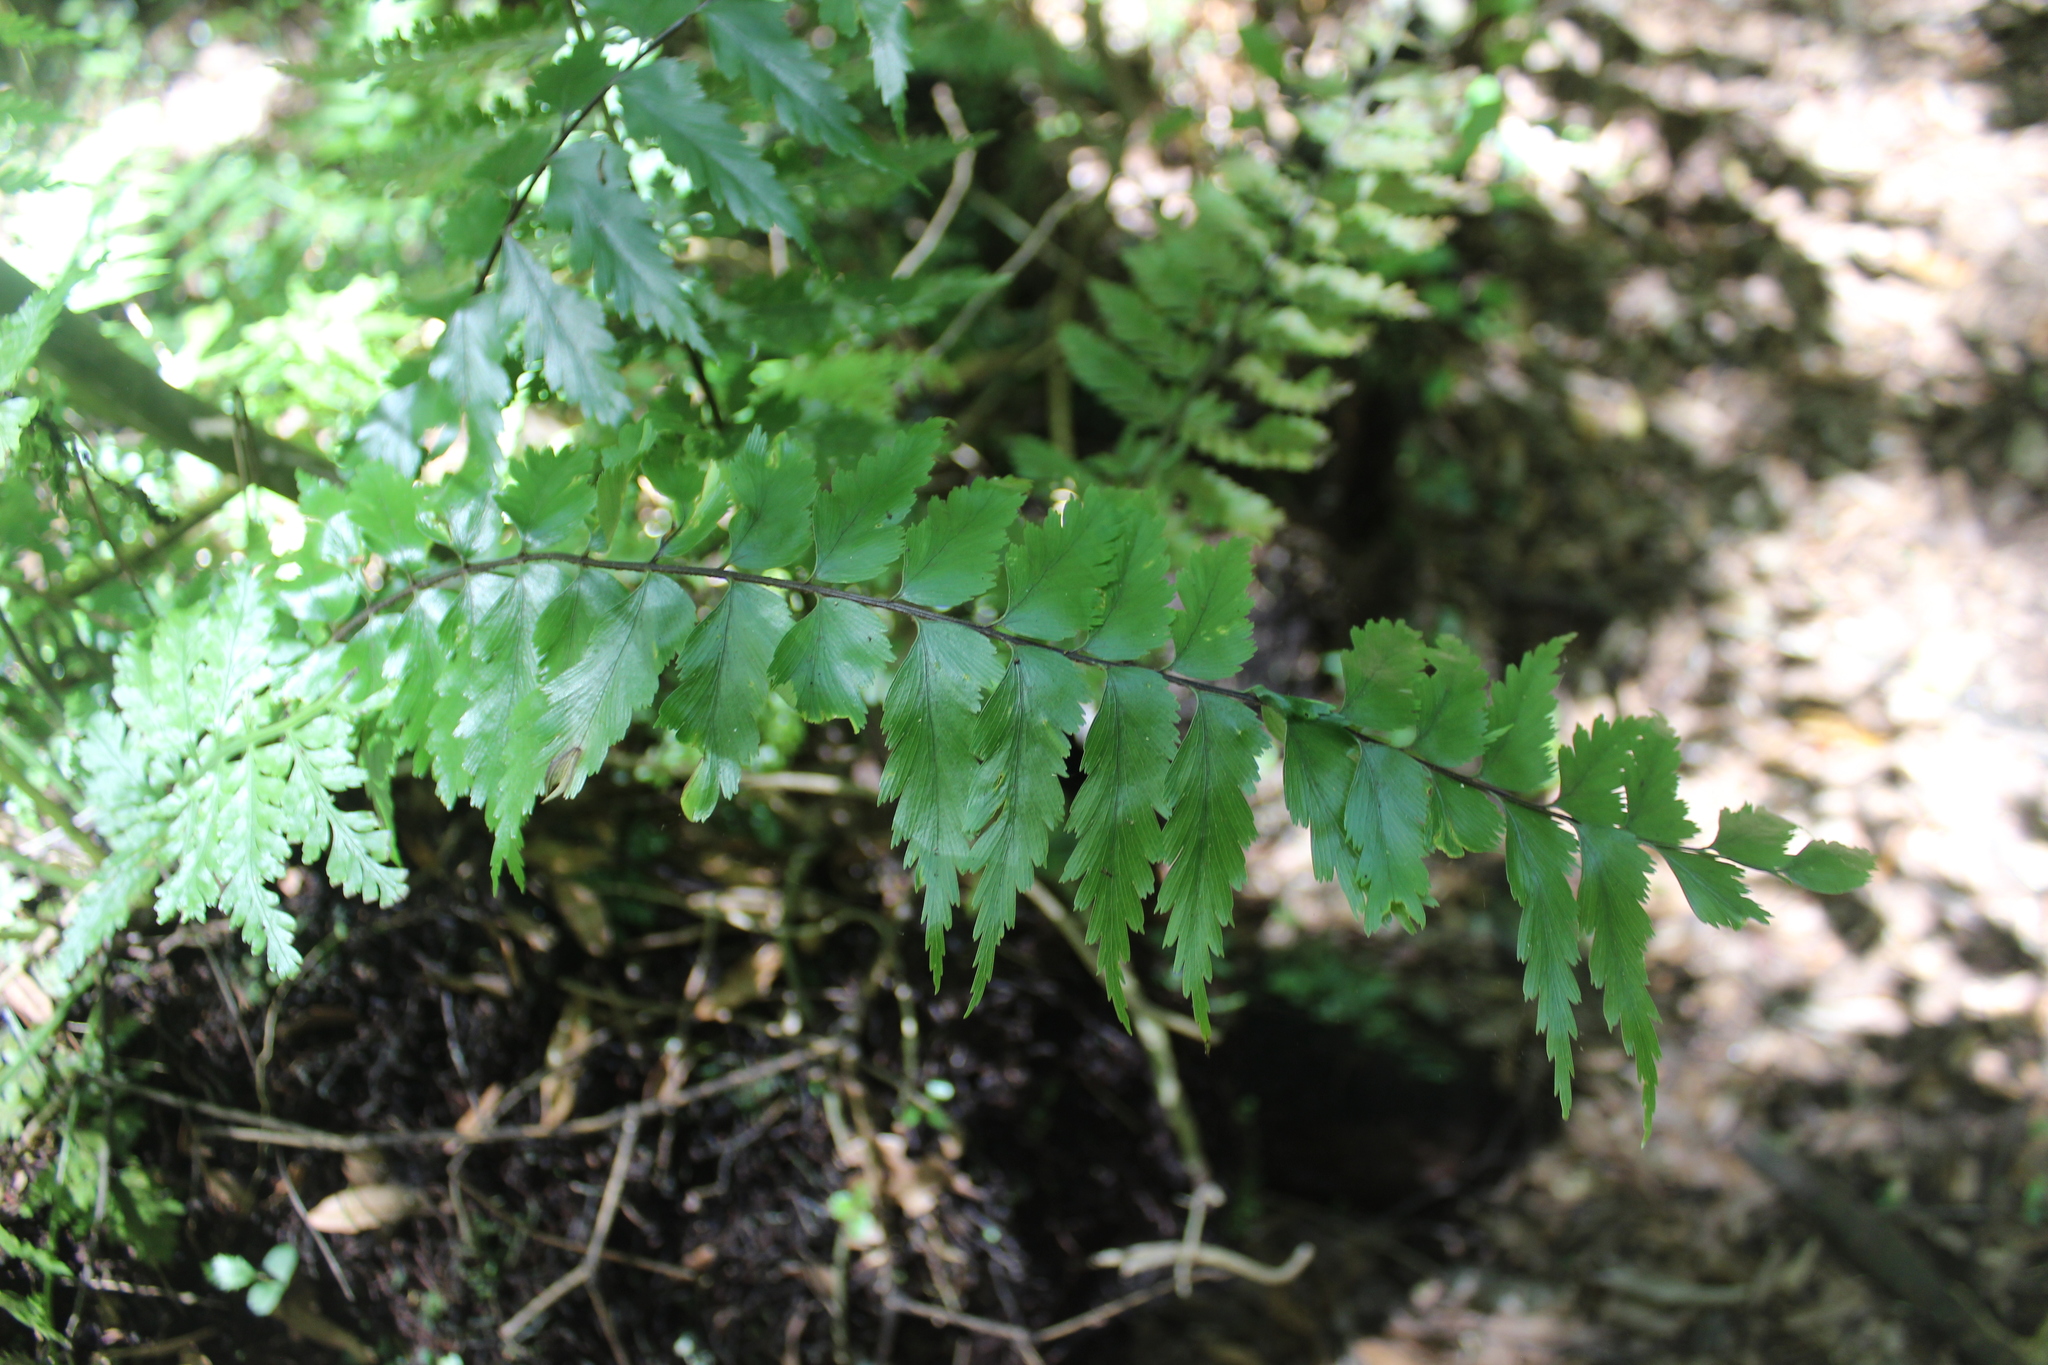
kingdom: Plantae
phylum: Tracheophyta
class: Polypodiopsida
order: Polypodiales
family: Aspleniaceae
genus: Asplenium
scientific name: Asplenium polyodon
